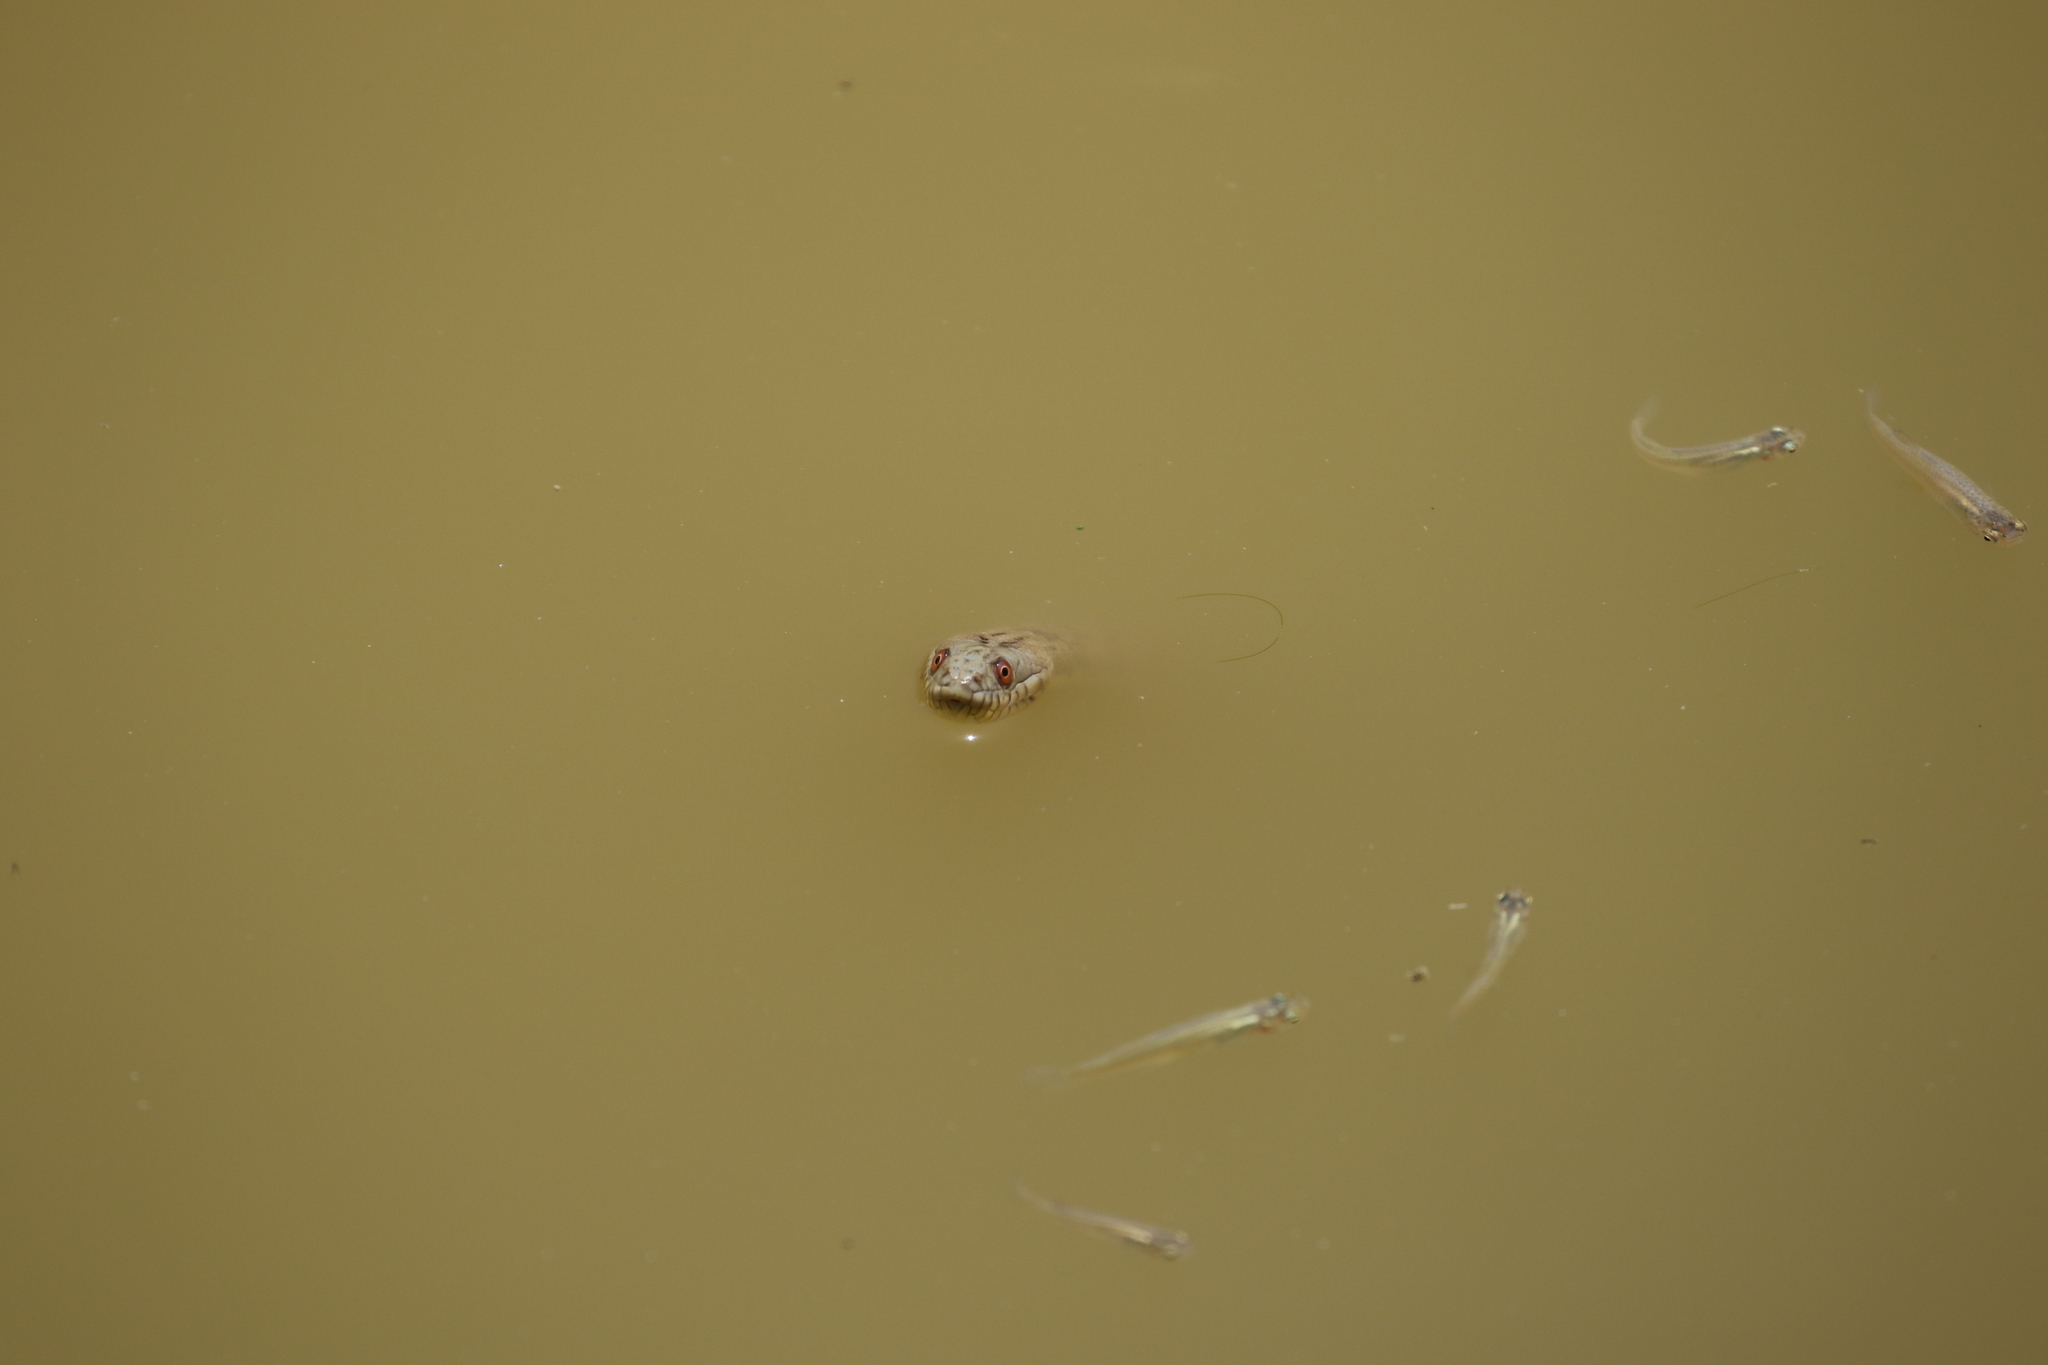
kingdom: Animalia
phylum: Chordata
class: Squamata
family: Colubridae
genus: Nerodia
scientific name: Nerodia rhombifer
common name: Diamondback water snake
